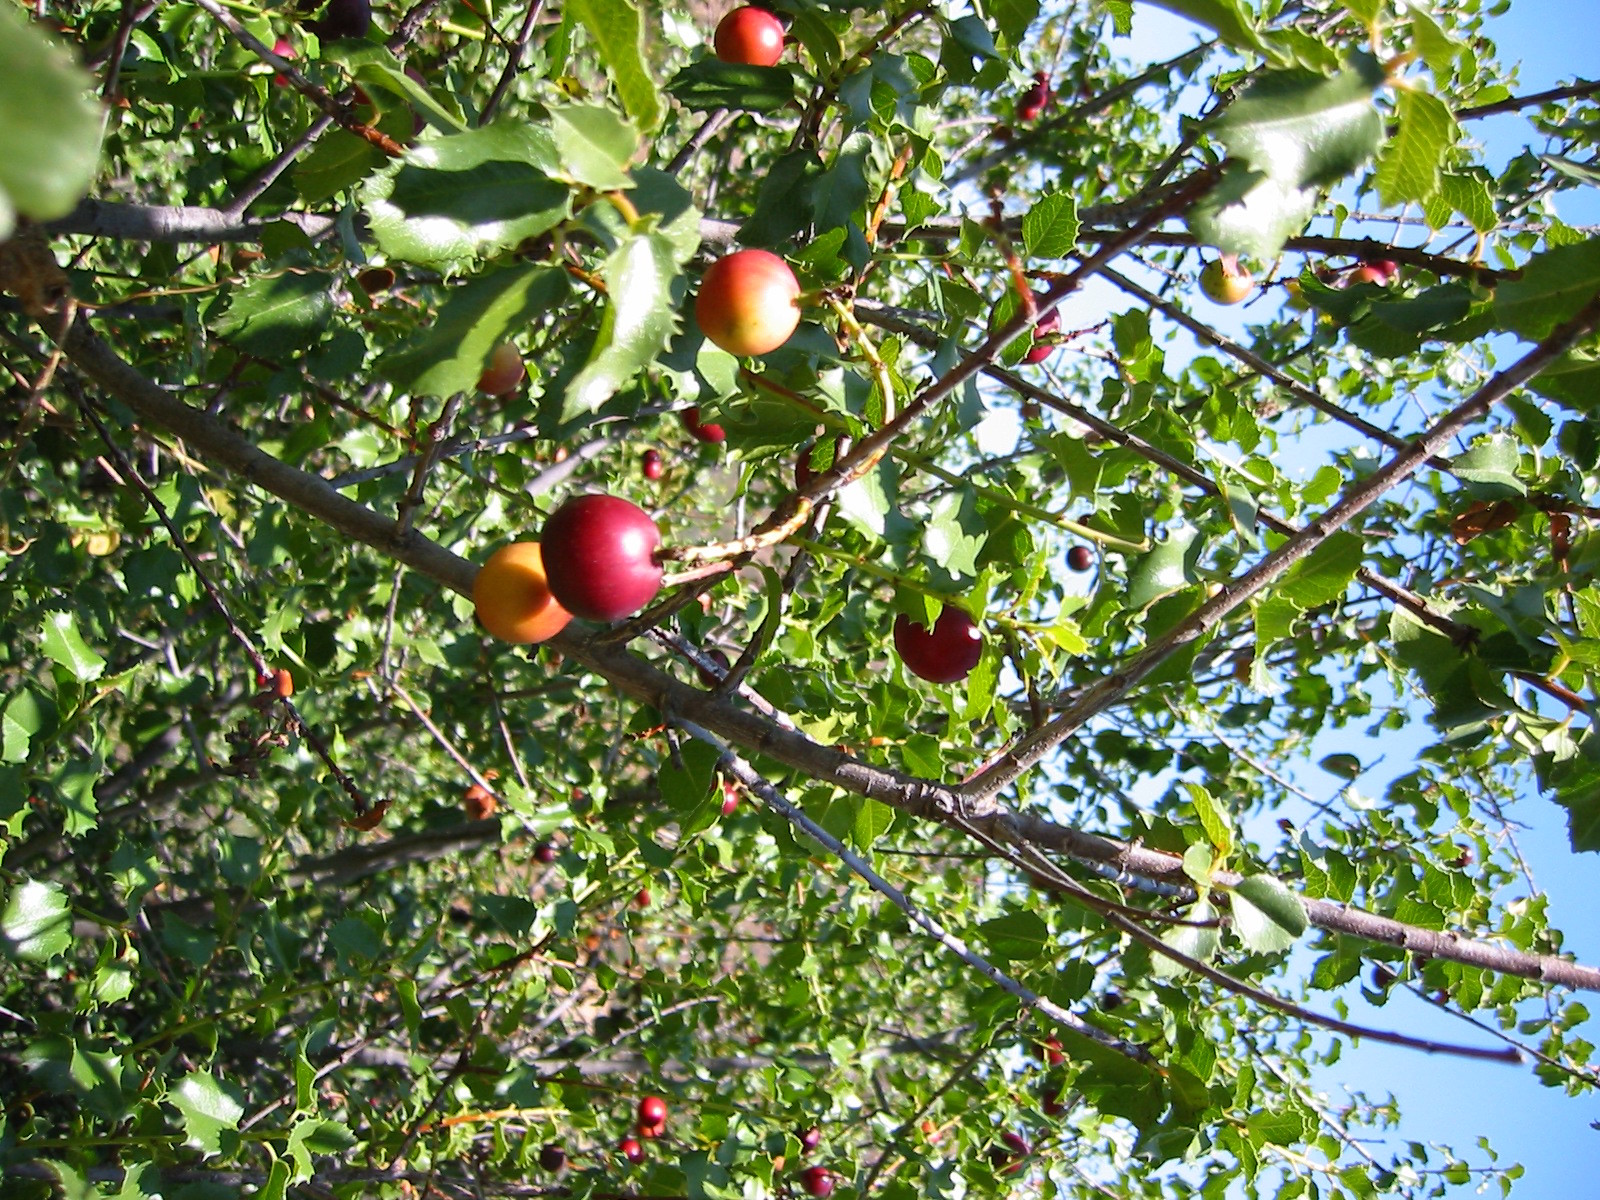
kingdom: Plantae
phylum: Tracheophyta
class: Magnoliopsida
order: Rosales
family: Rosaceae
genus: Prunus
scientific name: Prunus ilicifolia
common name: Hollyleaf cherry
